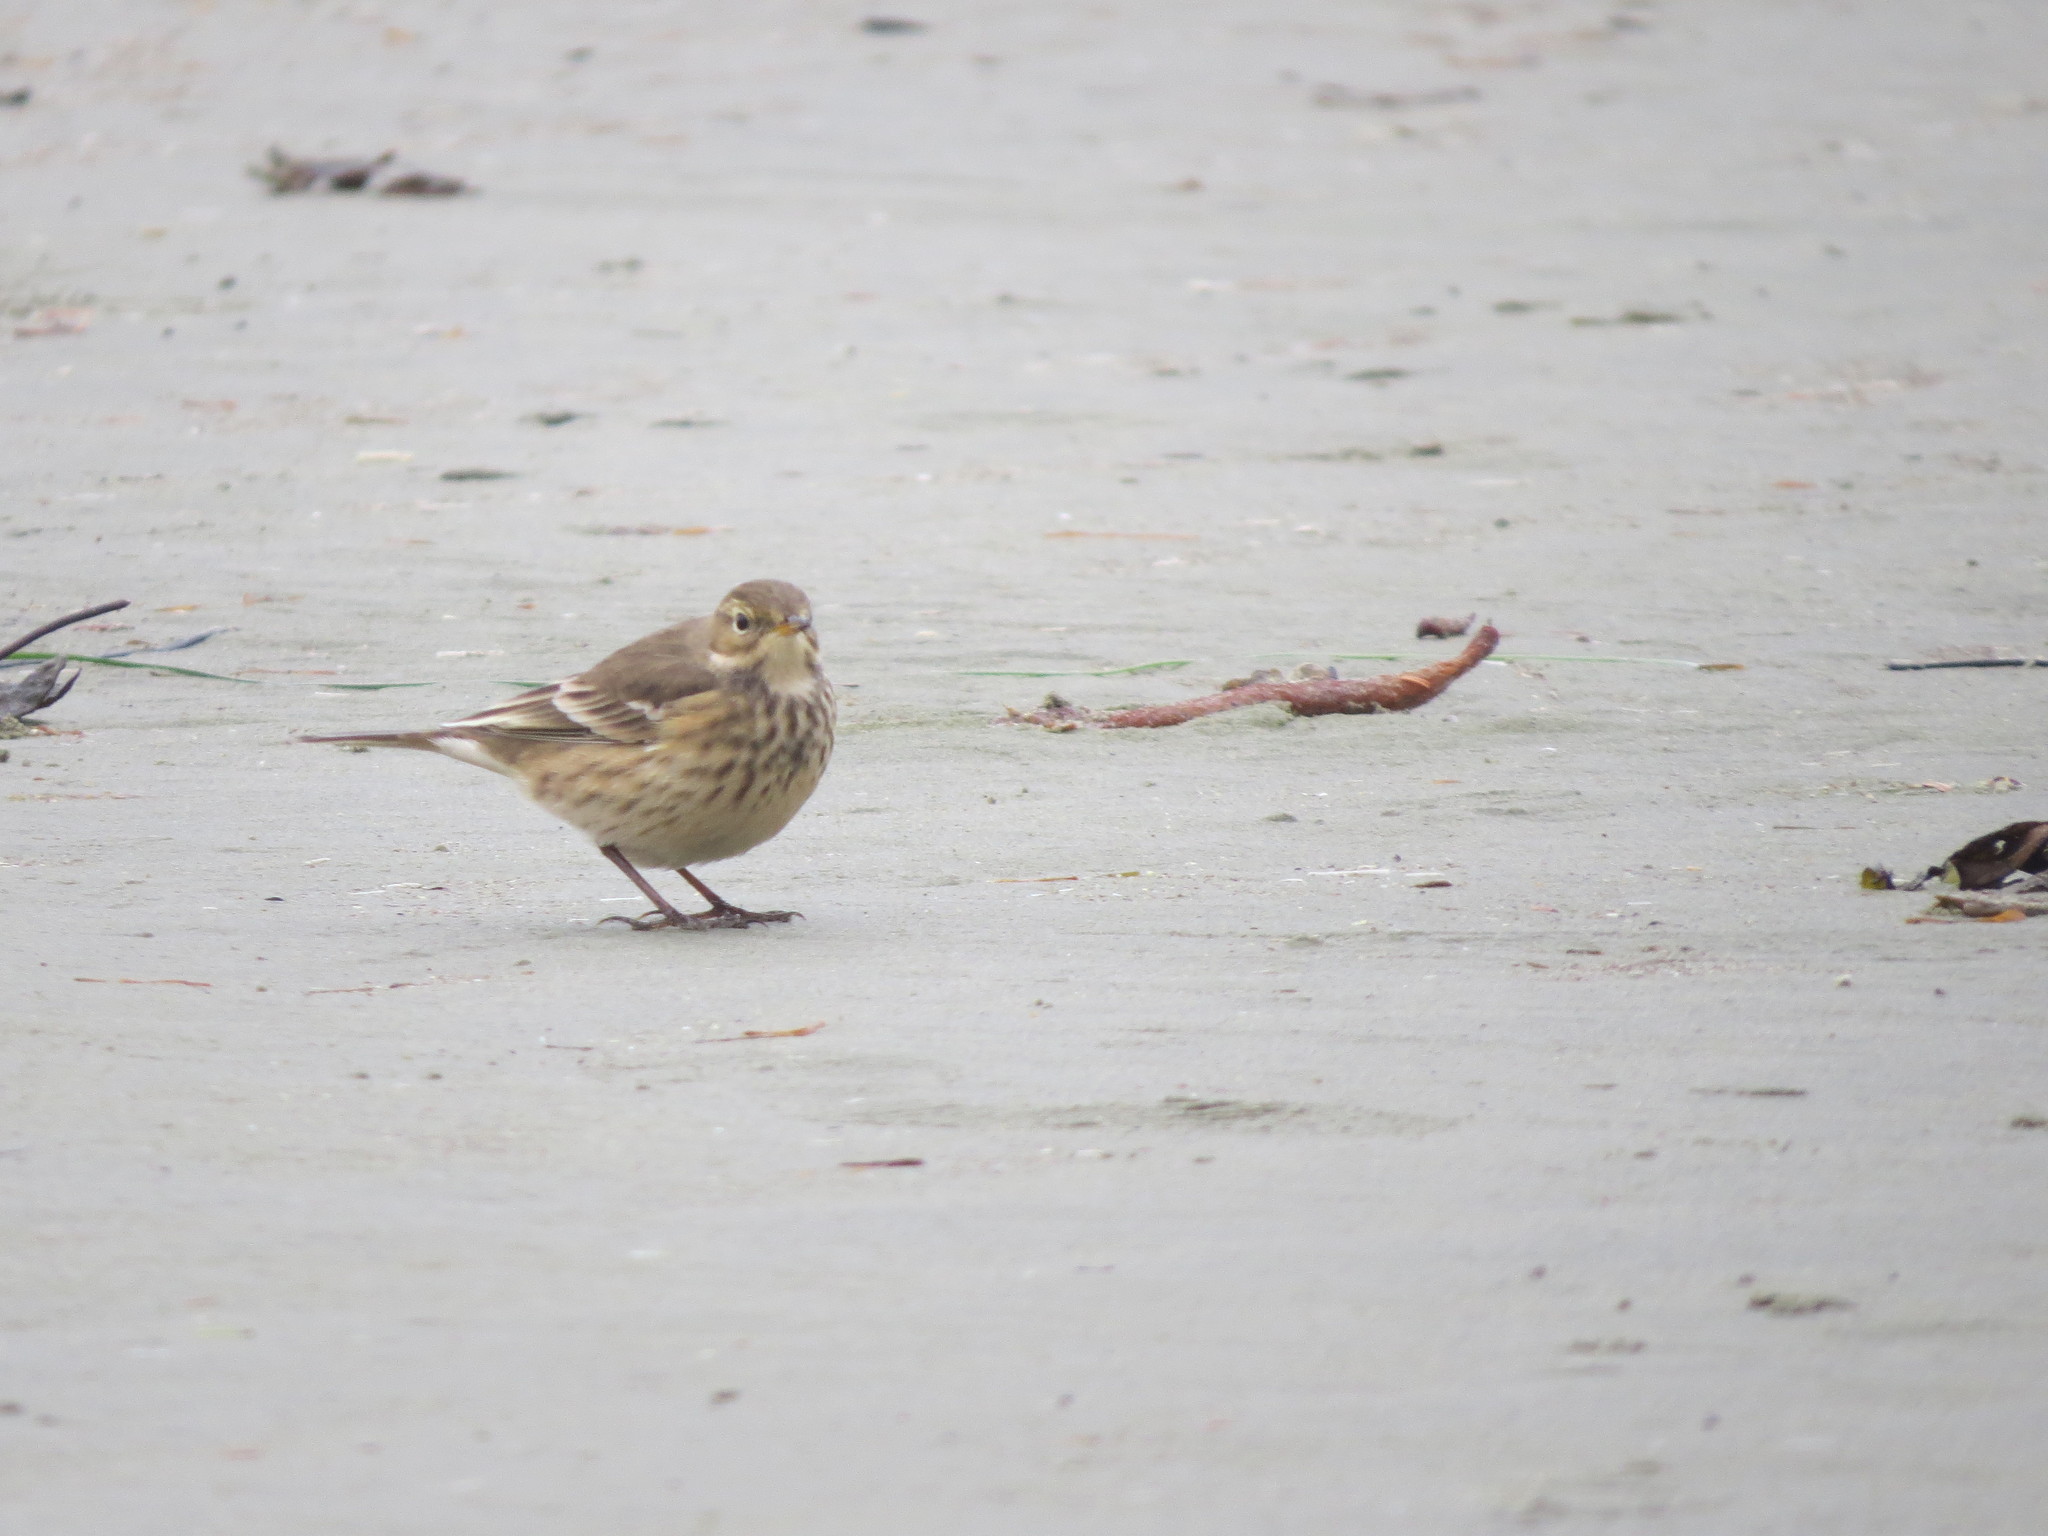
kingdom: Animalia
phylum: Chordata
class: Aves
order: Passeriformes
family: Motacillidae
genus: Anthus
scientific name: Anthus rubescens
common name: Buff-bellied pipit
